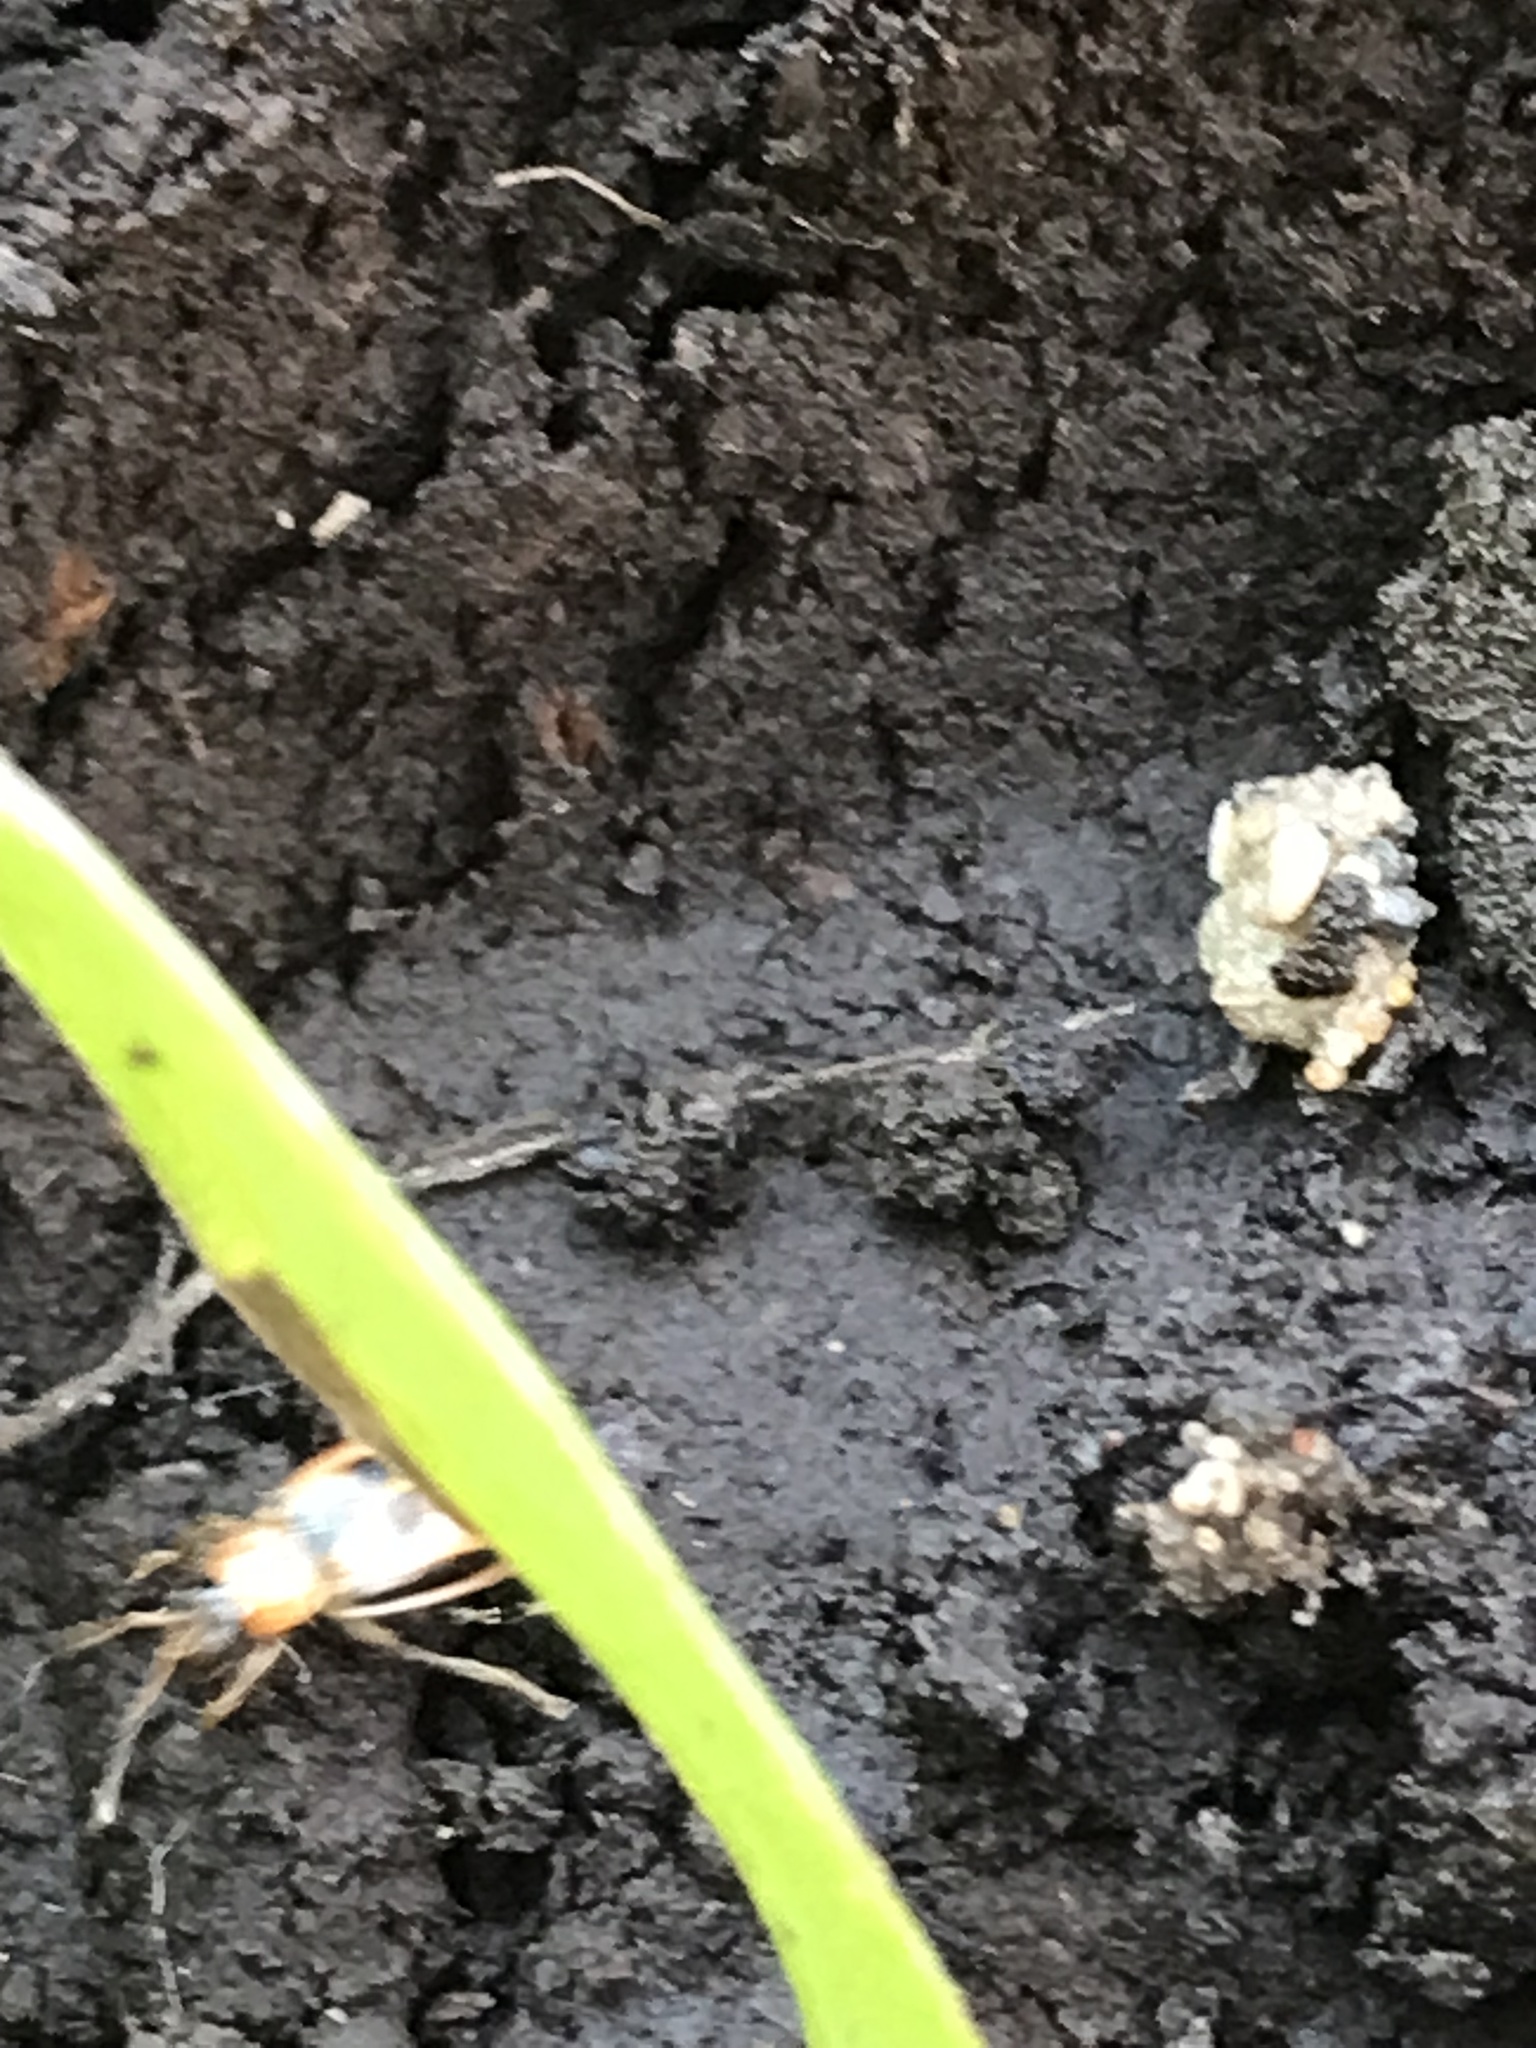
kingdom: Animalia
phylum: Arthropoda
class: Insecta
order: Coleoptera
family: Chrysomelidae
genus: Cerotoma
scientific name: Cerotoma trifurcata
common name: Bean leaf beetle
